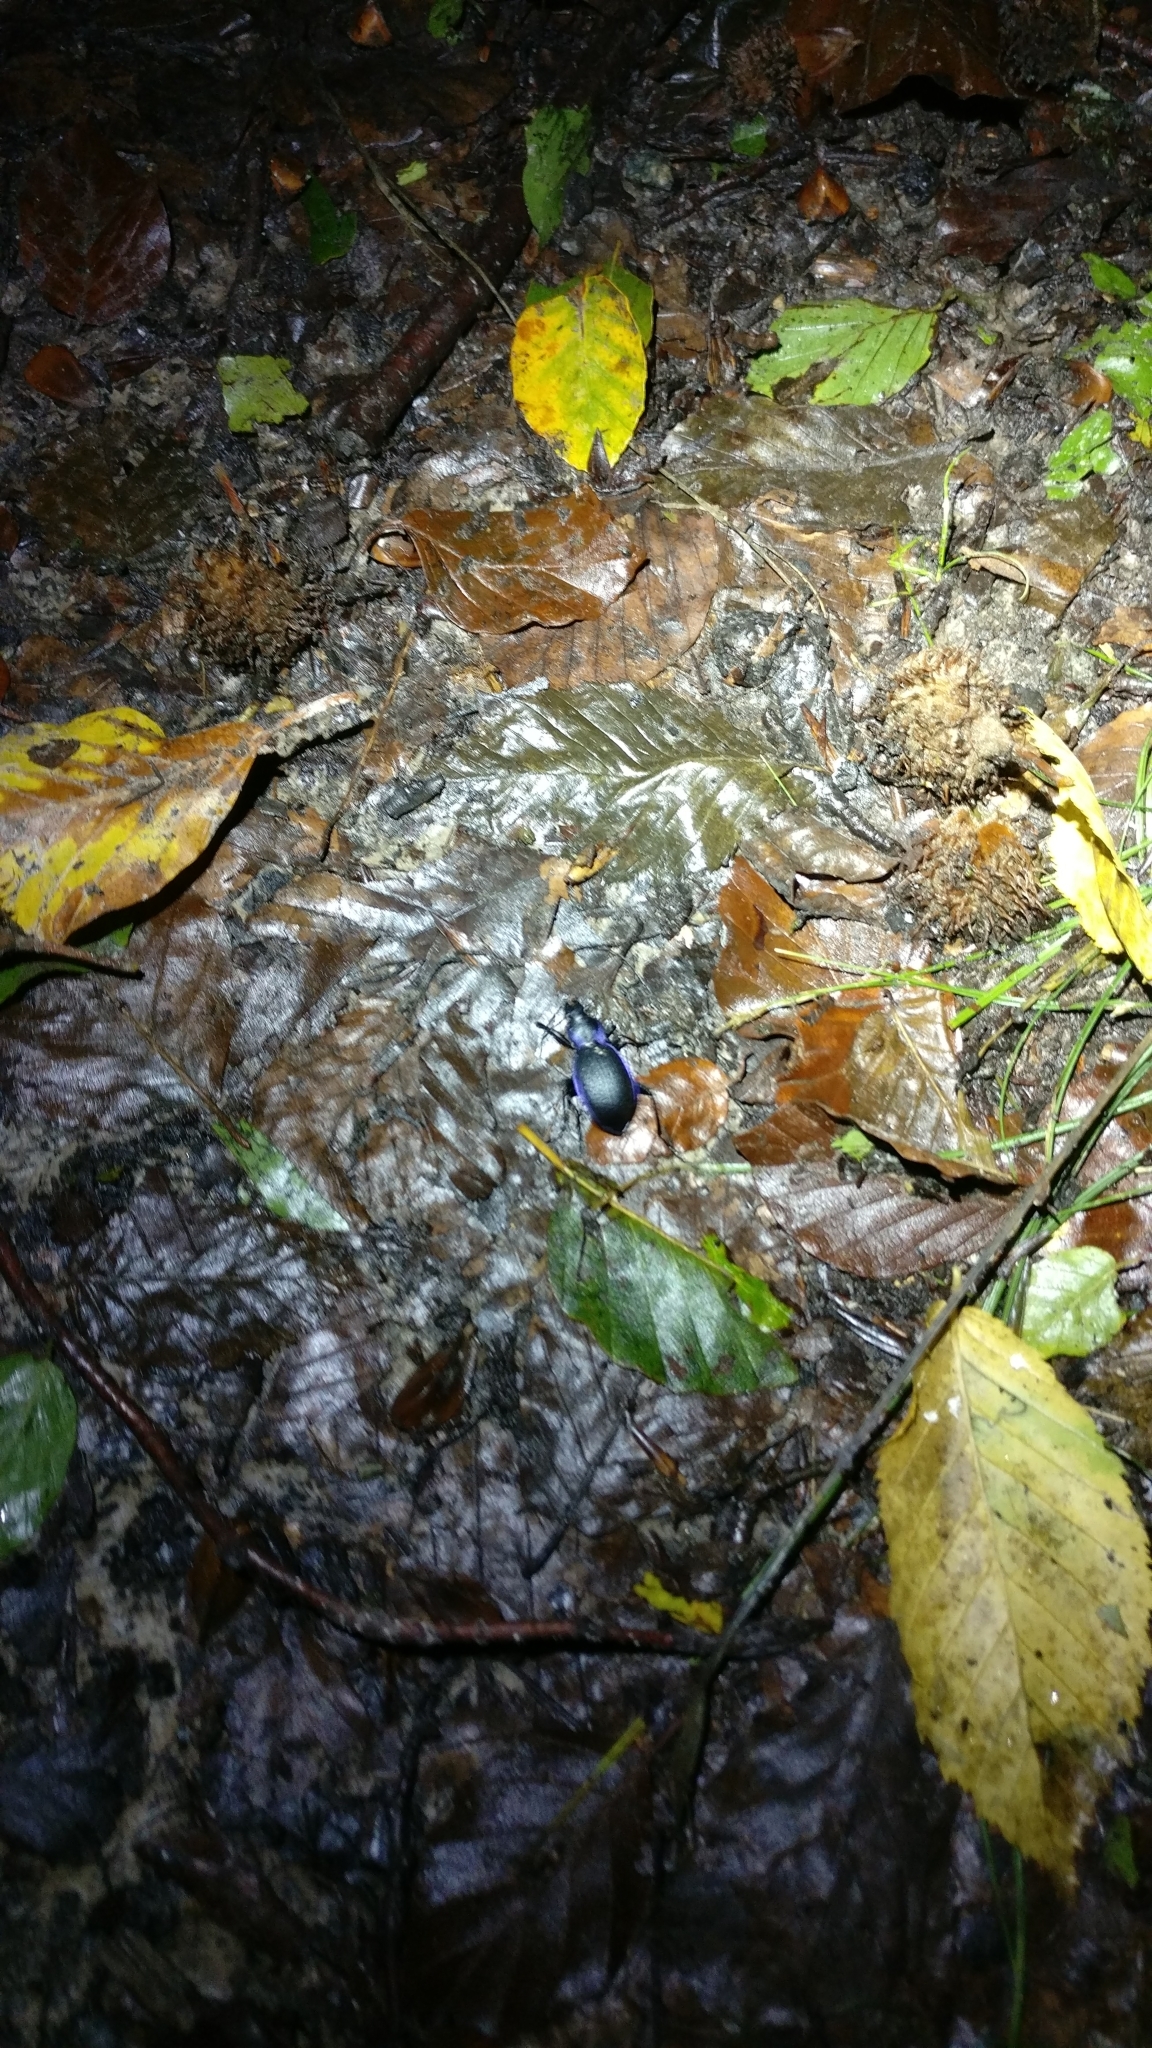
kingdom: Animalia
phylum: Arthropoda
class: Insecta
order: Coleoptera
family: Carabidae
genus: Carabus
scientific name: Carabus problematicus
